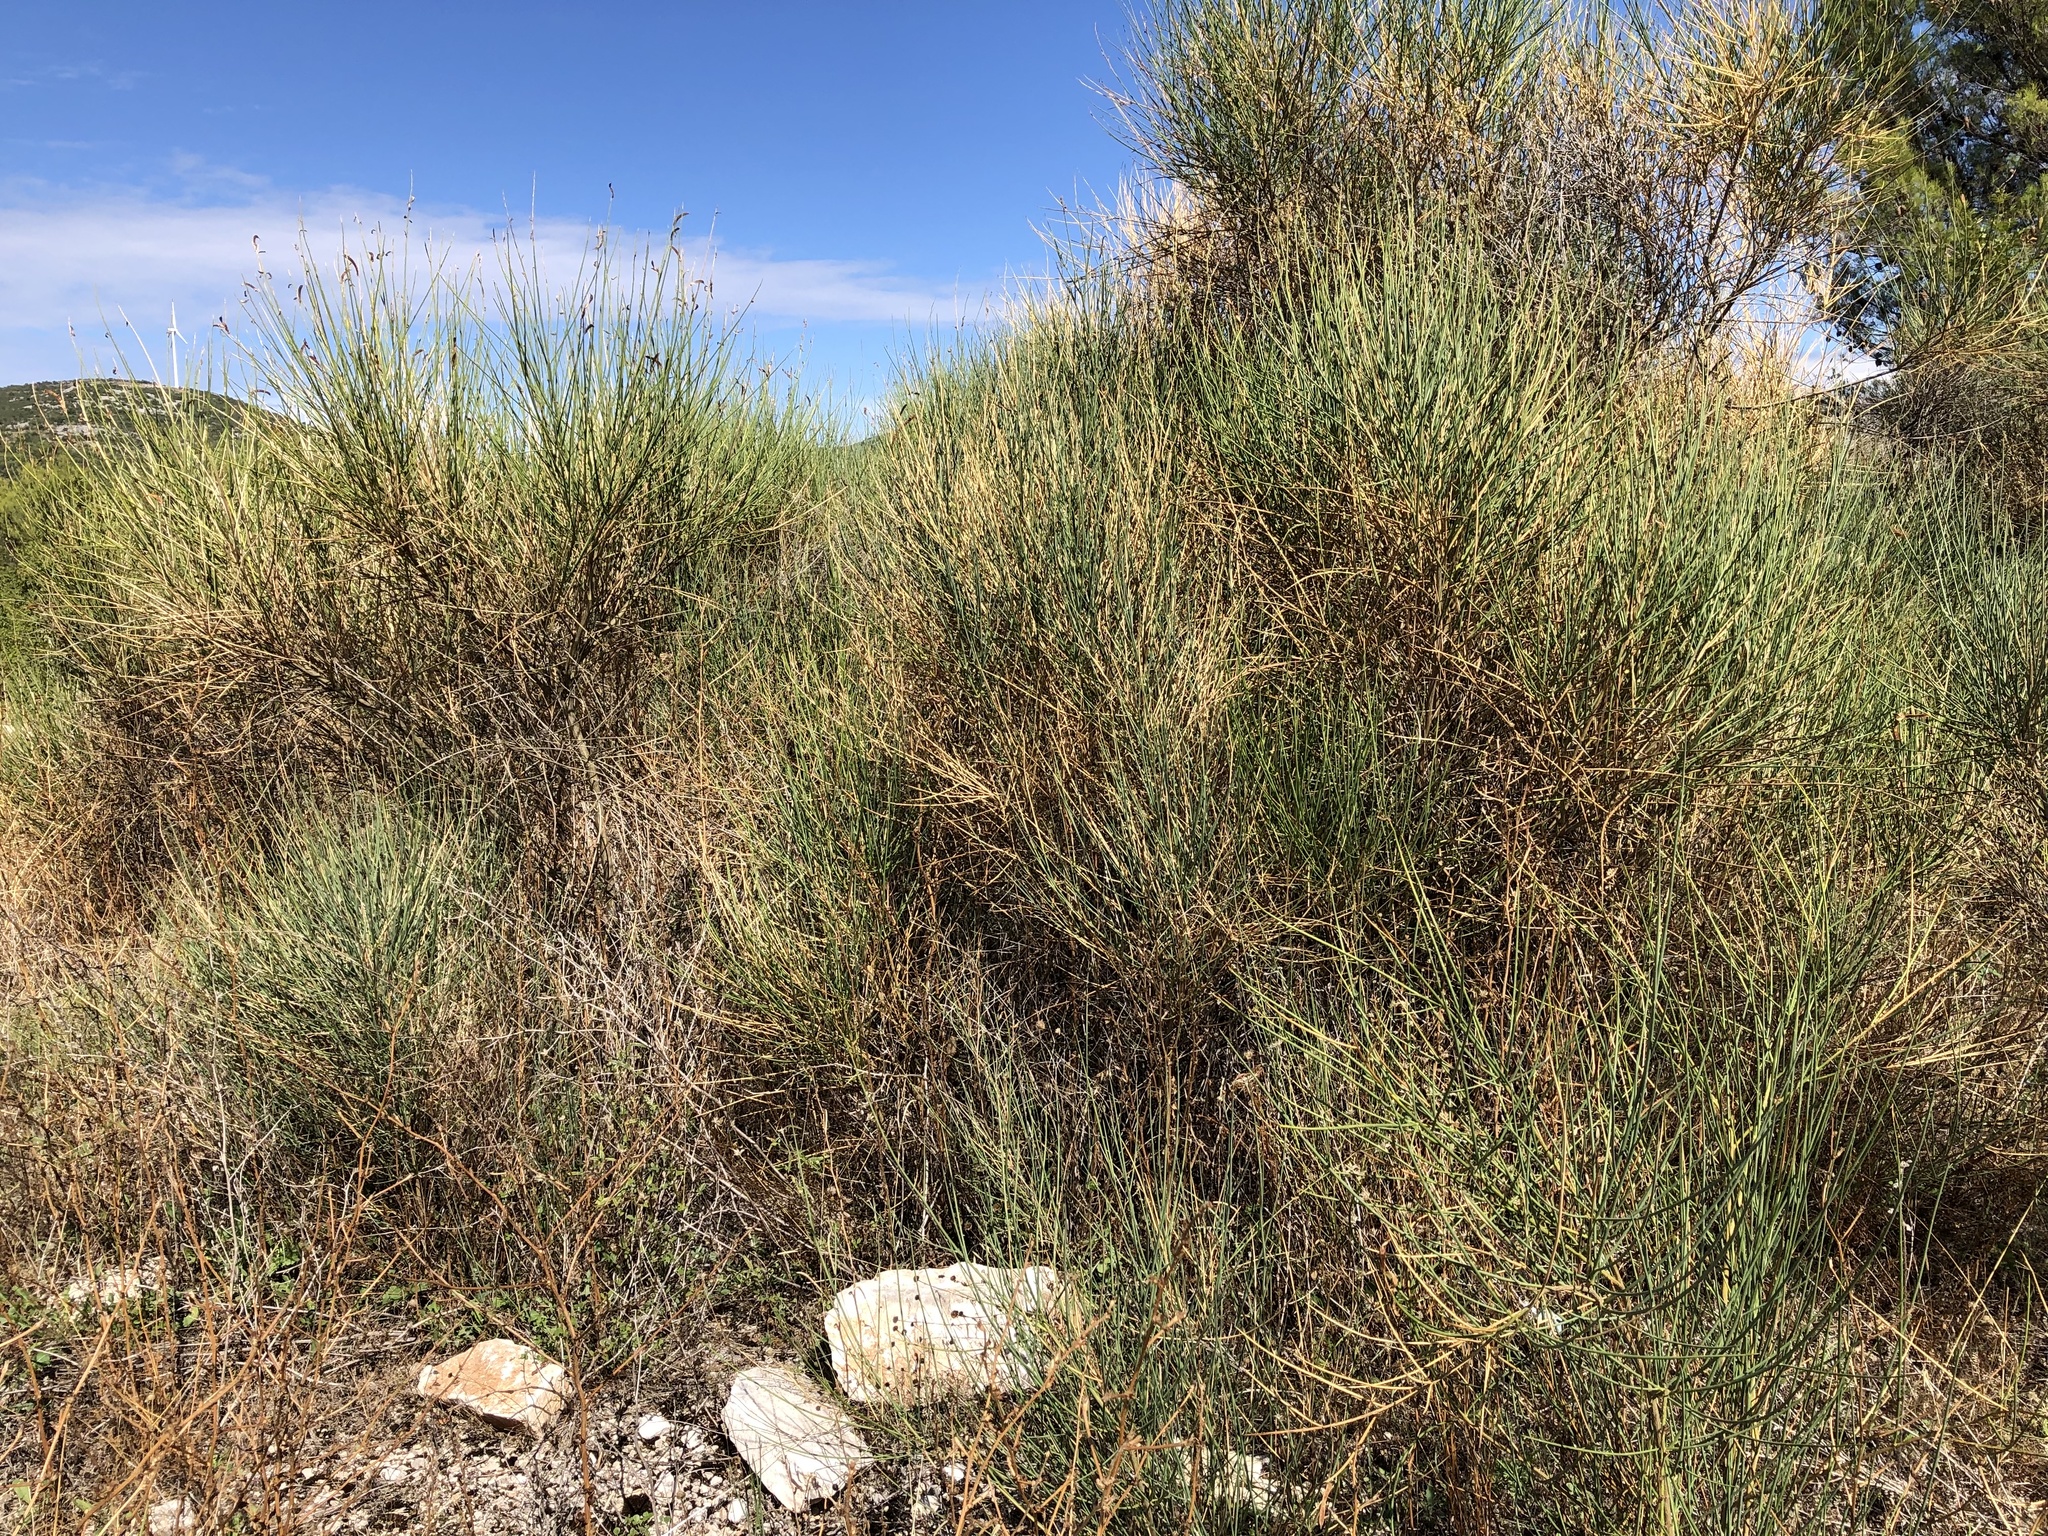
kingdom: Plantae
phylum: Tracheophyta
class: Magnoliopsida
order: Fabales
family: Fabaceae
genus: Spartium
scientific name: Spartium junceum
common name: Spanish broom
